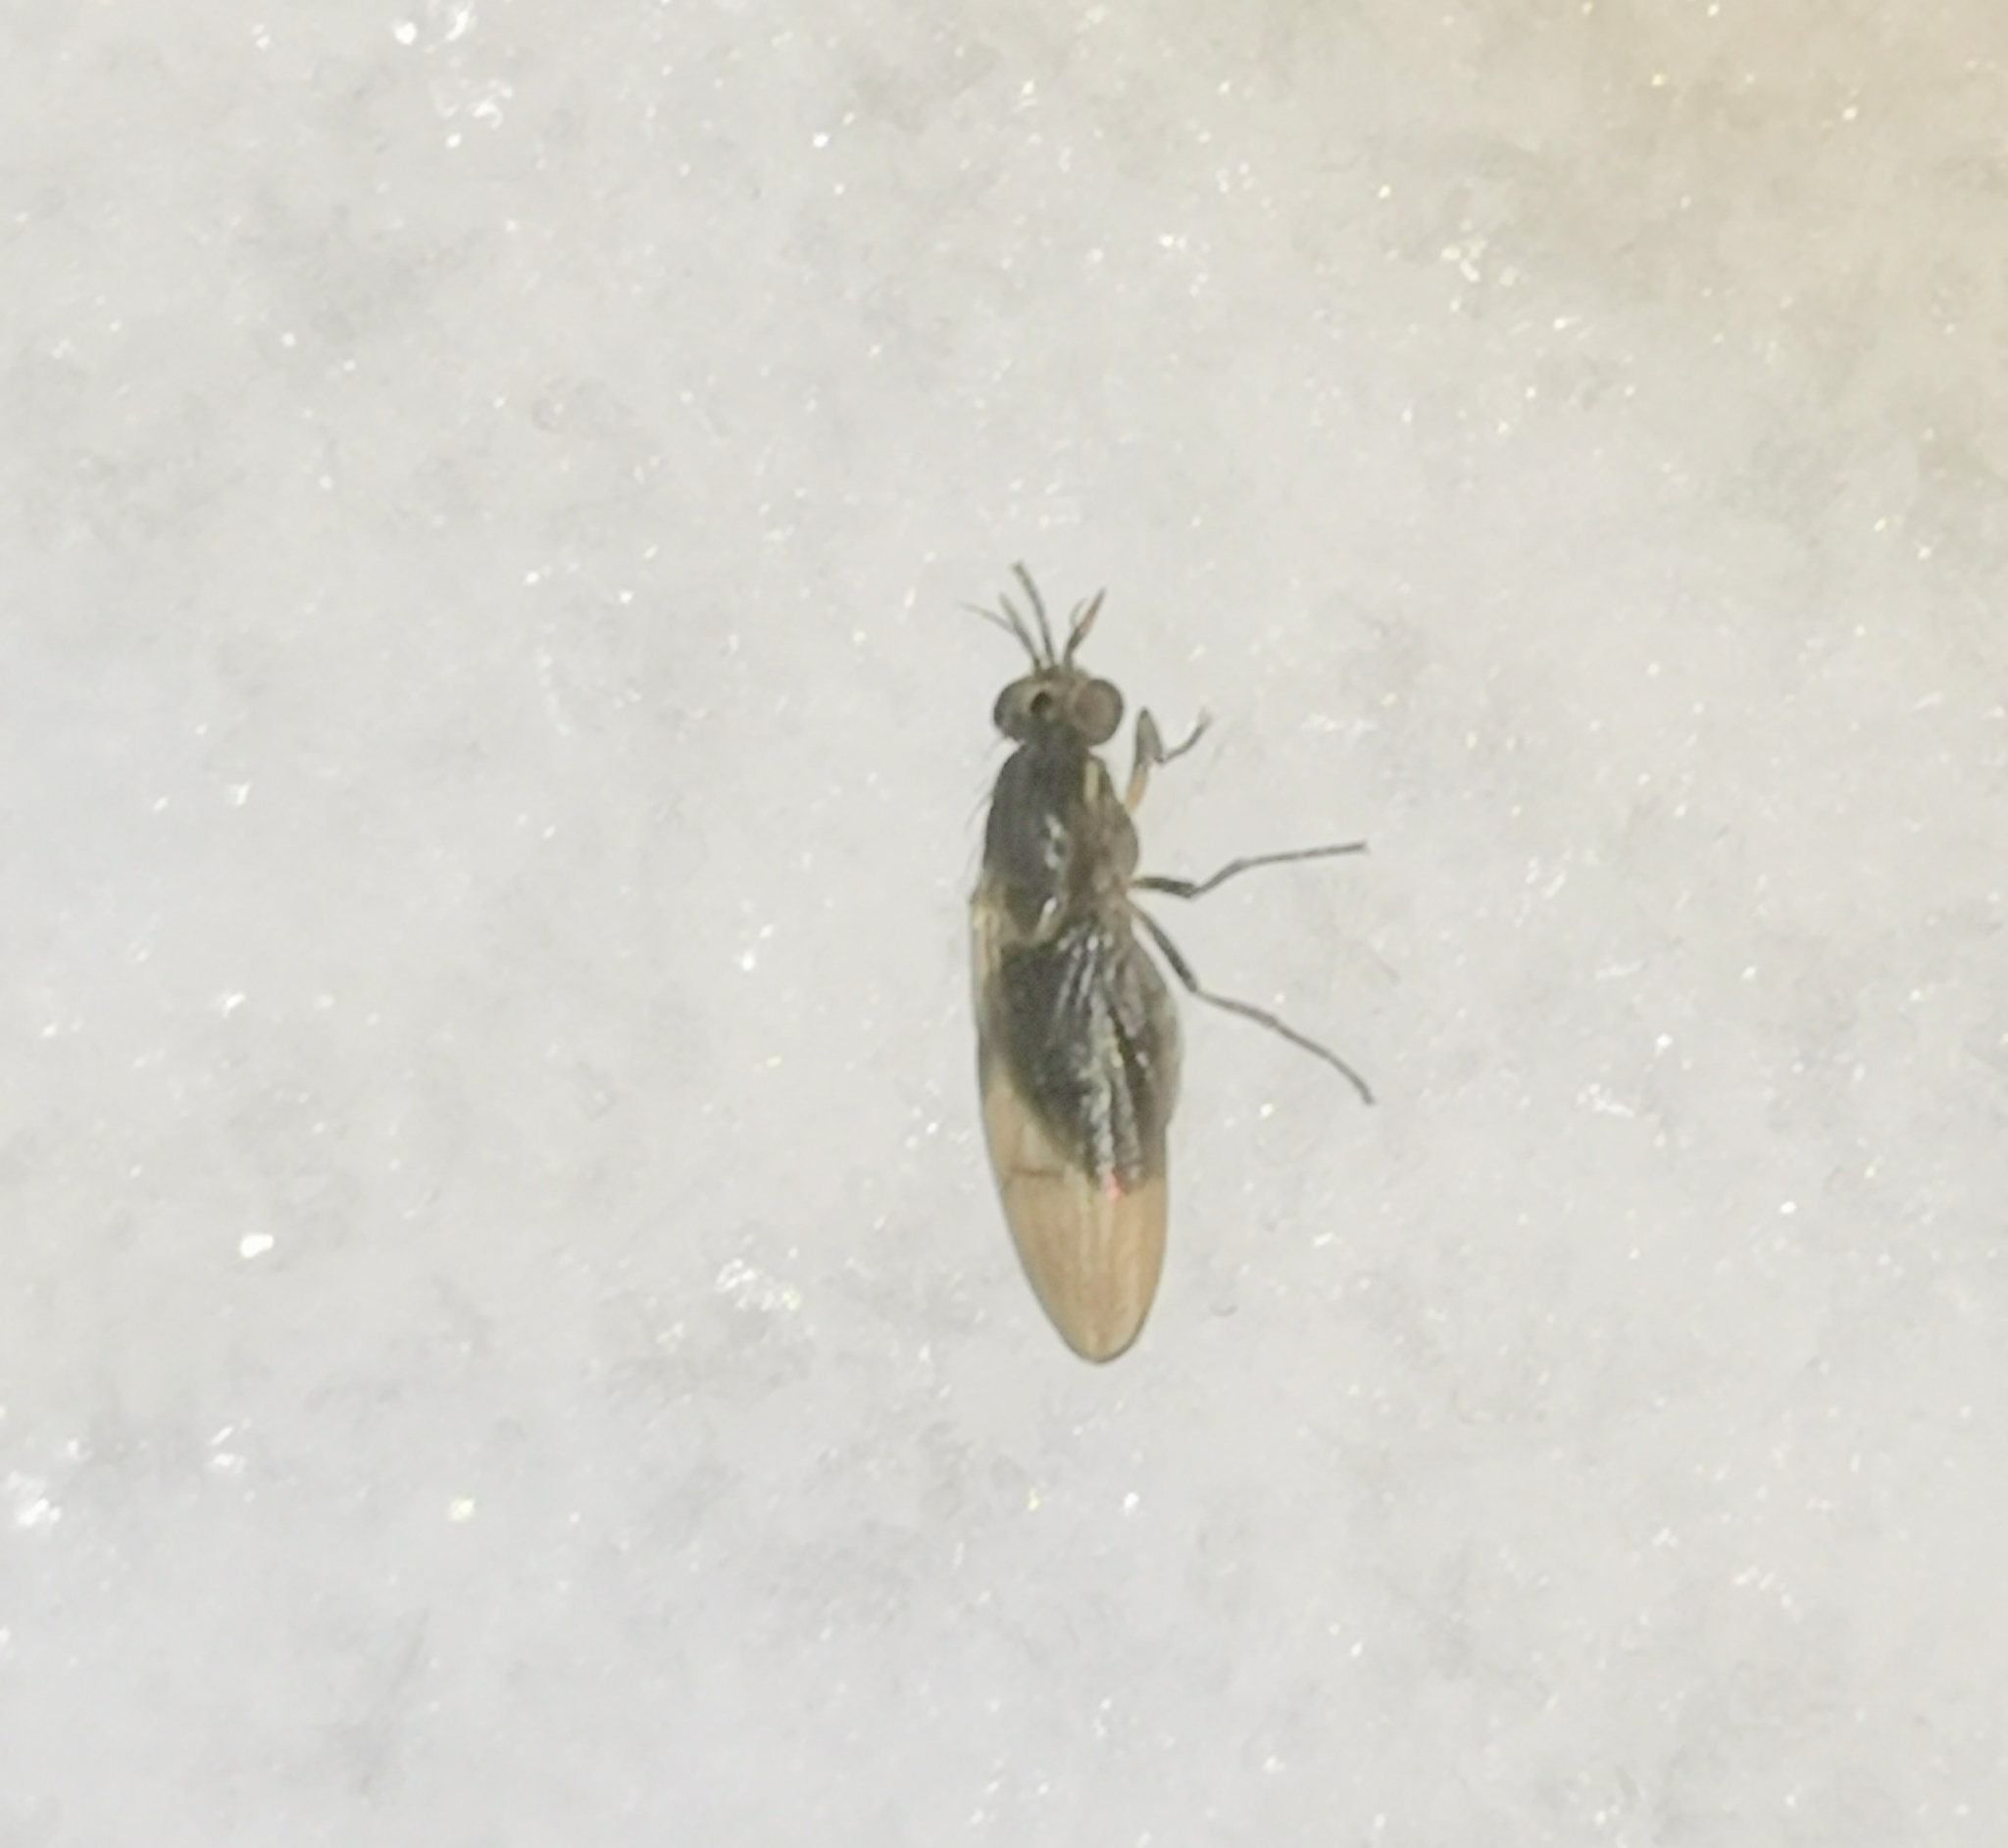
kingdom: Animalia
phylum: Arthropoda
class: Insecta
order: Diptera
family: Lauxaniidae
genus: Pachycerina
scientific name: Pachycerina seticornis
